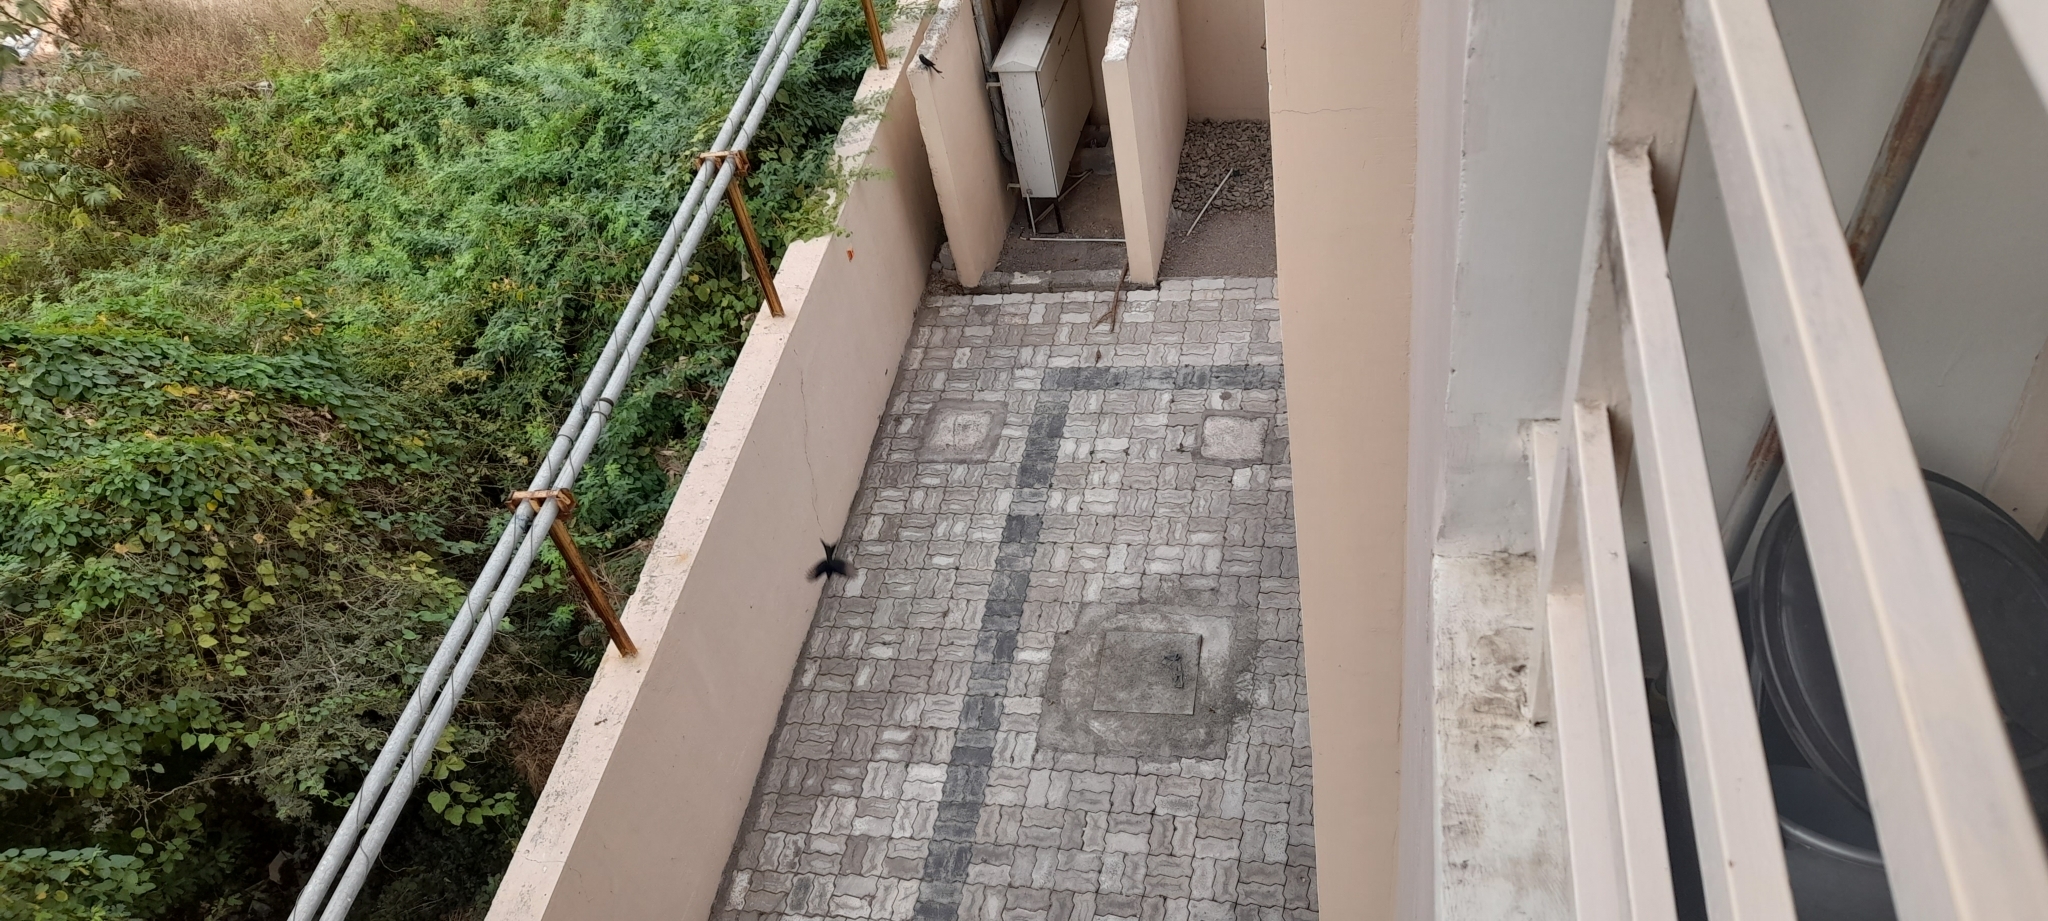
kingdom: Animalia
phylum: Chordata
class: Aves
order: Passeriformes
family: Dicruridae
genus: Dicrurus
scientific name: Dicrurus macrocercus
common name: Black drongo
